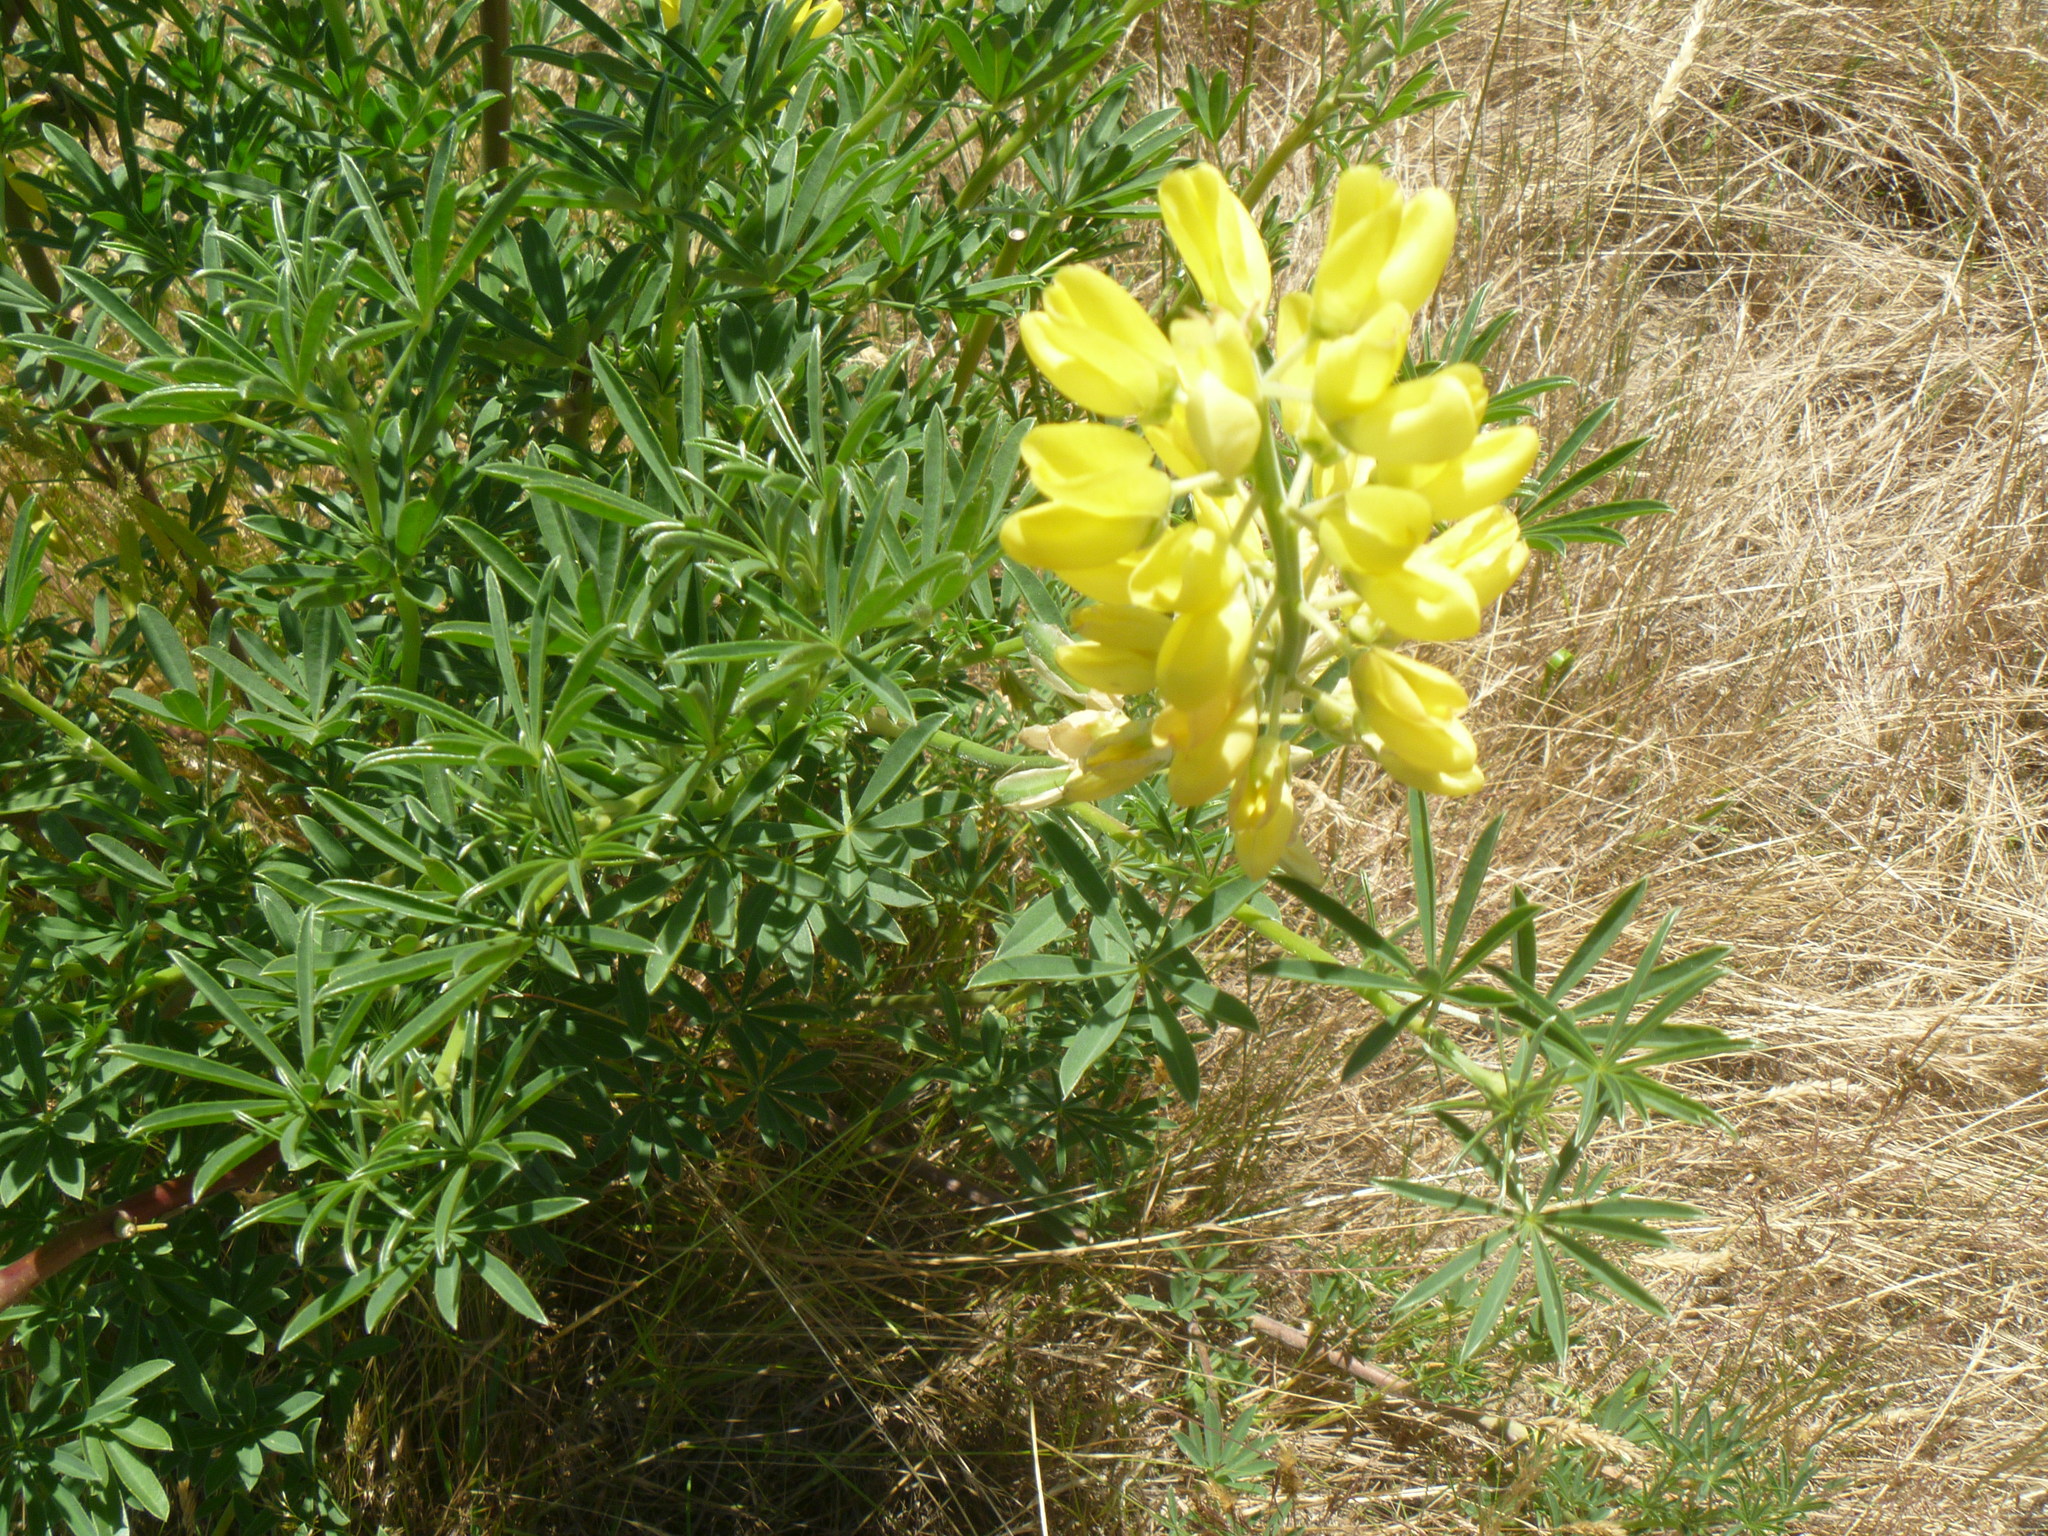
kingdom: Plantae
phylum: Tracheophyta
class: Magnoliopsida
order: Fabales
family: Fabaceae
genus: Lupinus
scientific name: Lupinus arboreus
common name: Yellow bush lupine
